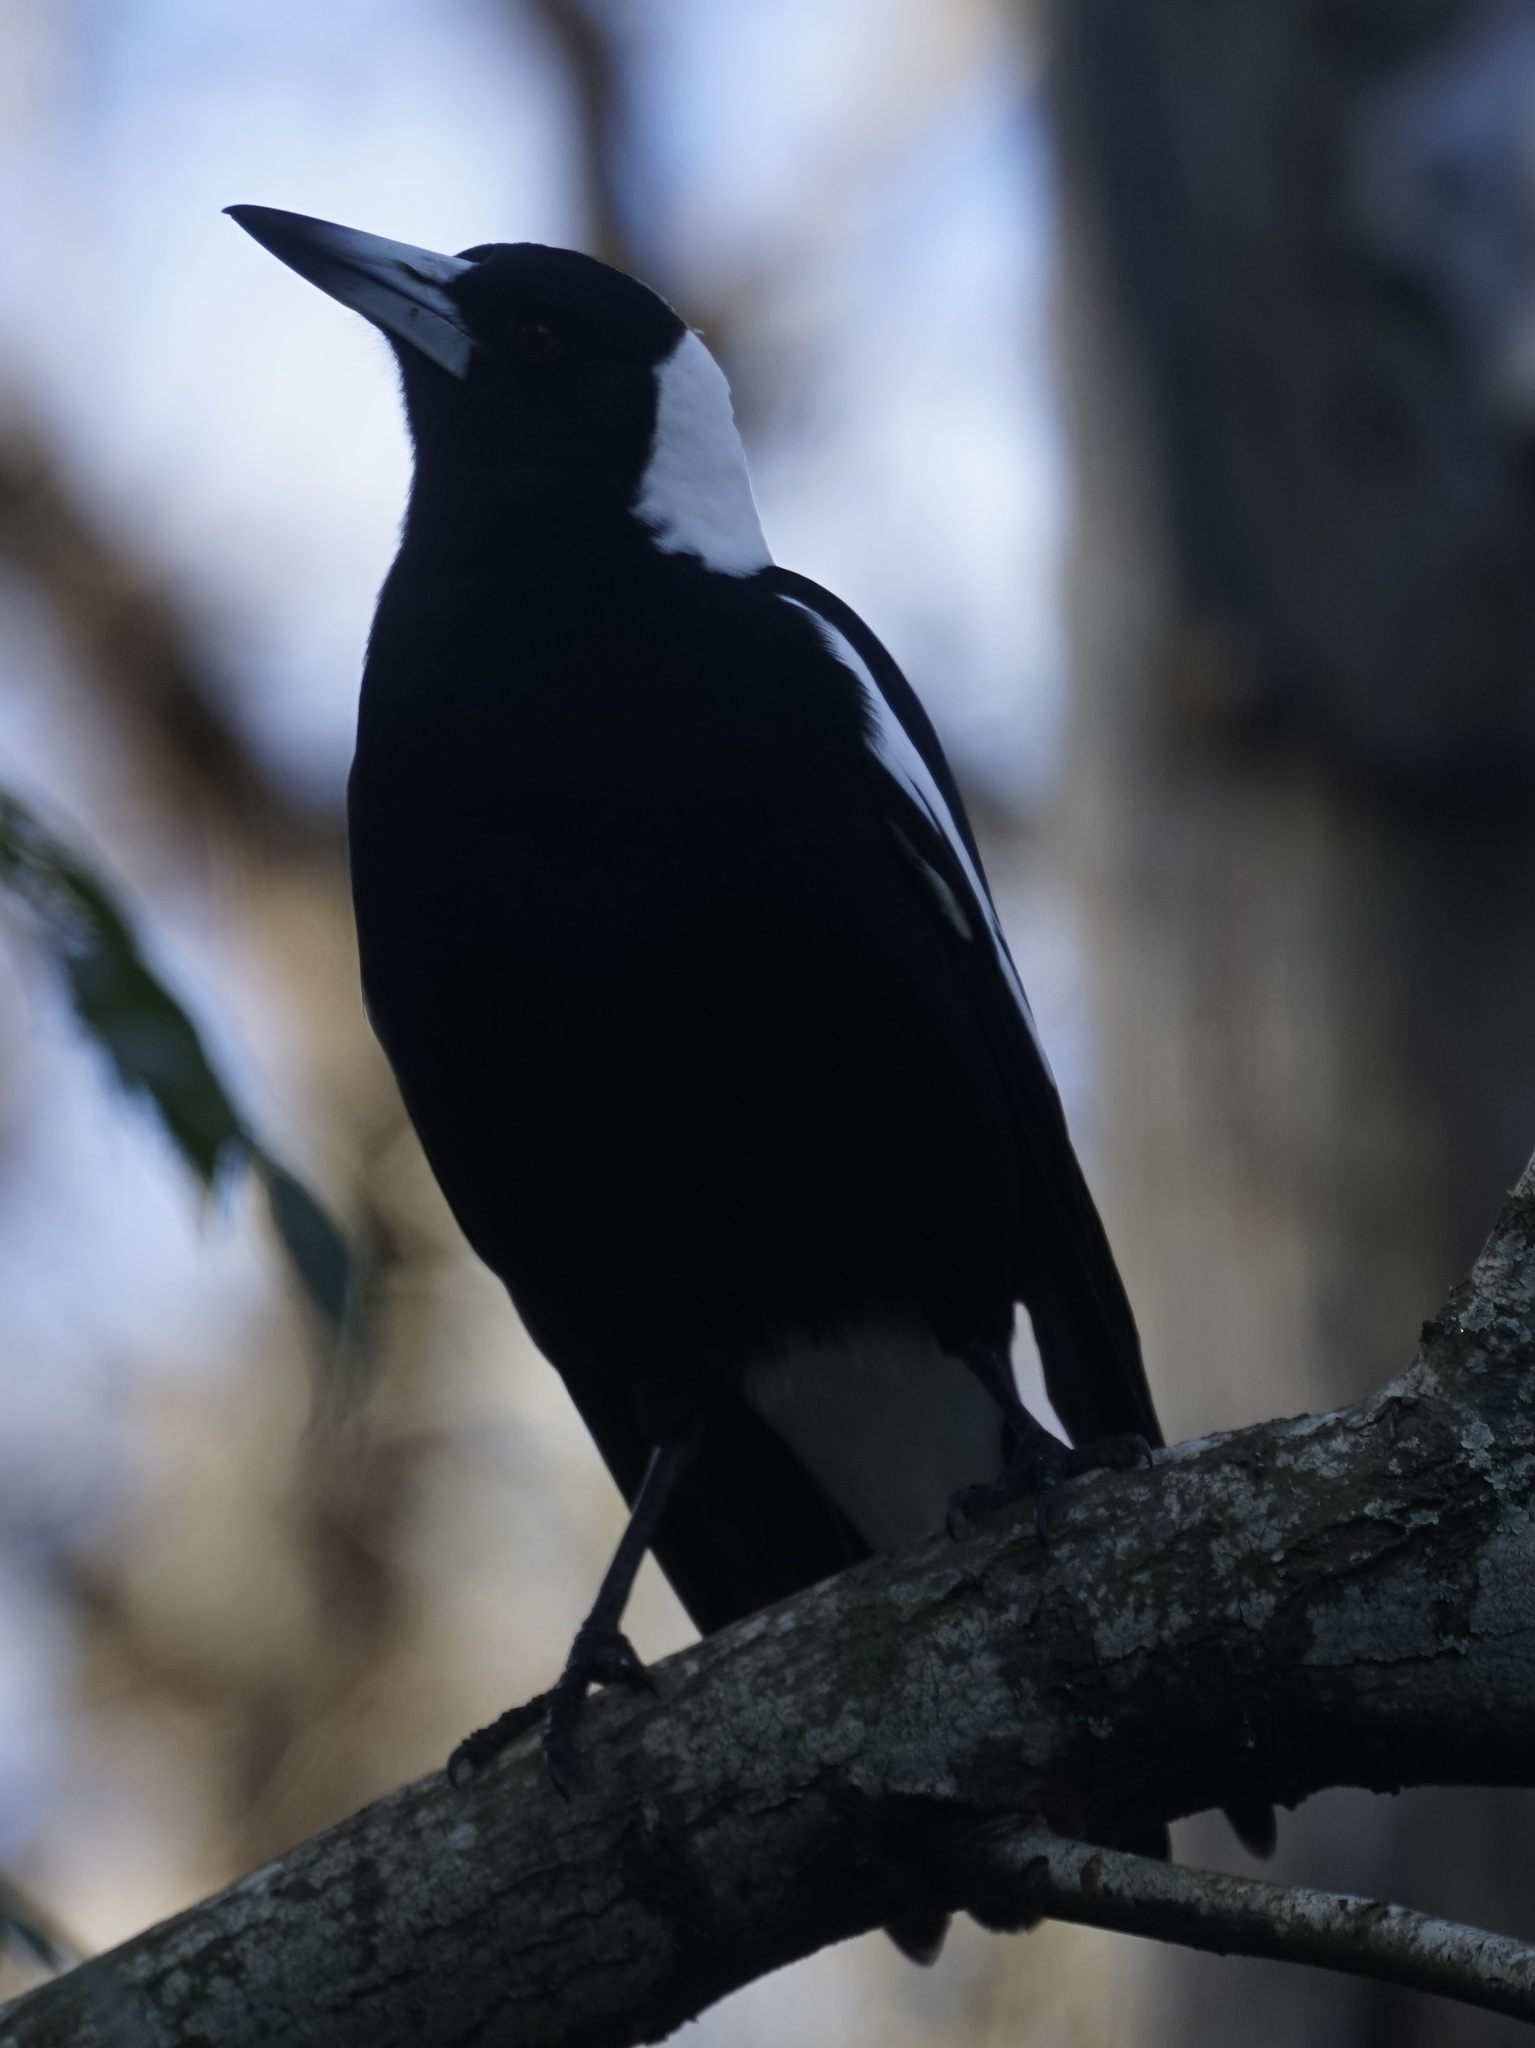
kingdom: Animalia
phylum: Chordata
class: Aves
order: Passeriformes
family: Cracticidae
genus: Gymnorhina
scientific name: Gymnorhina tibicen
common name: Australian magpie
